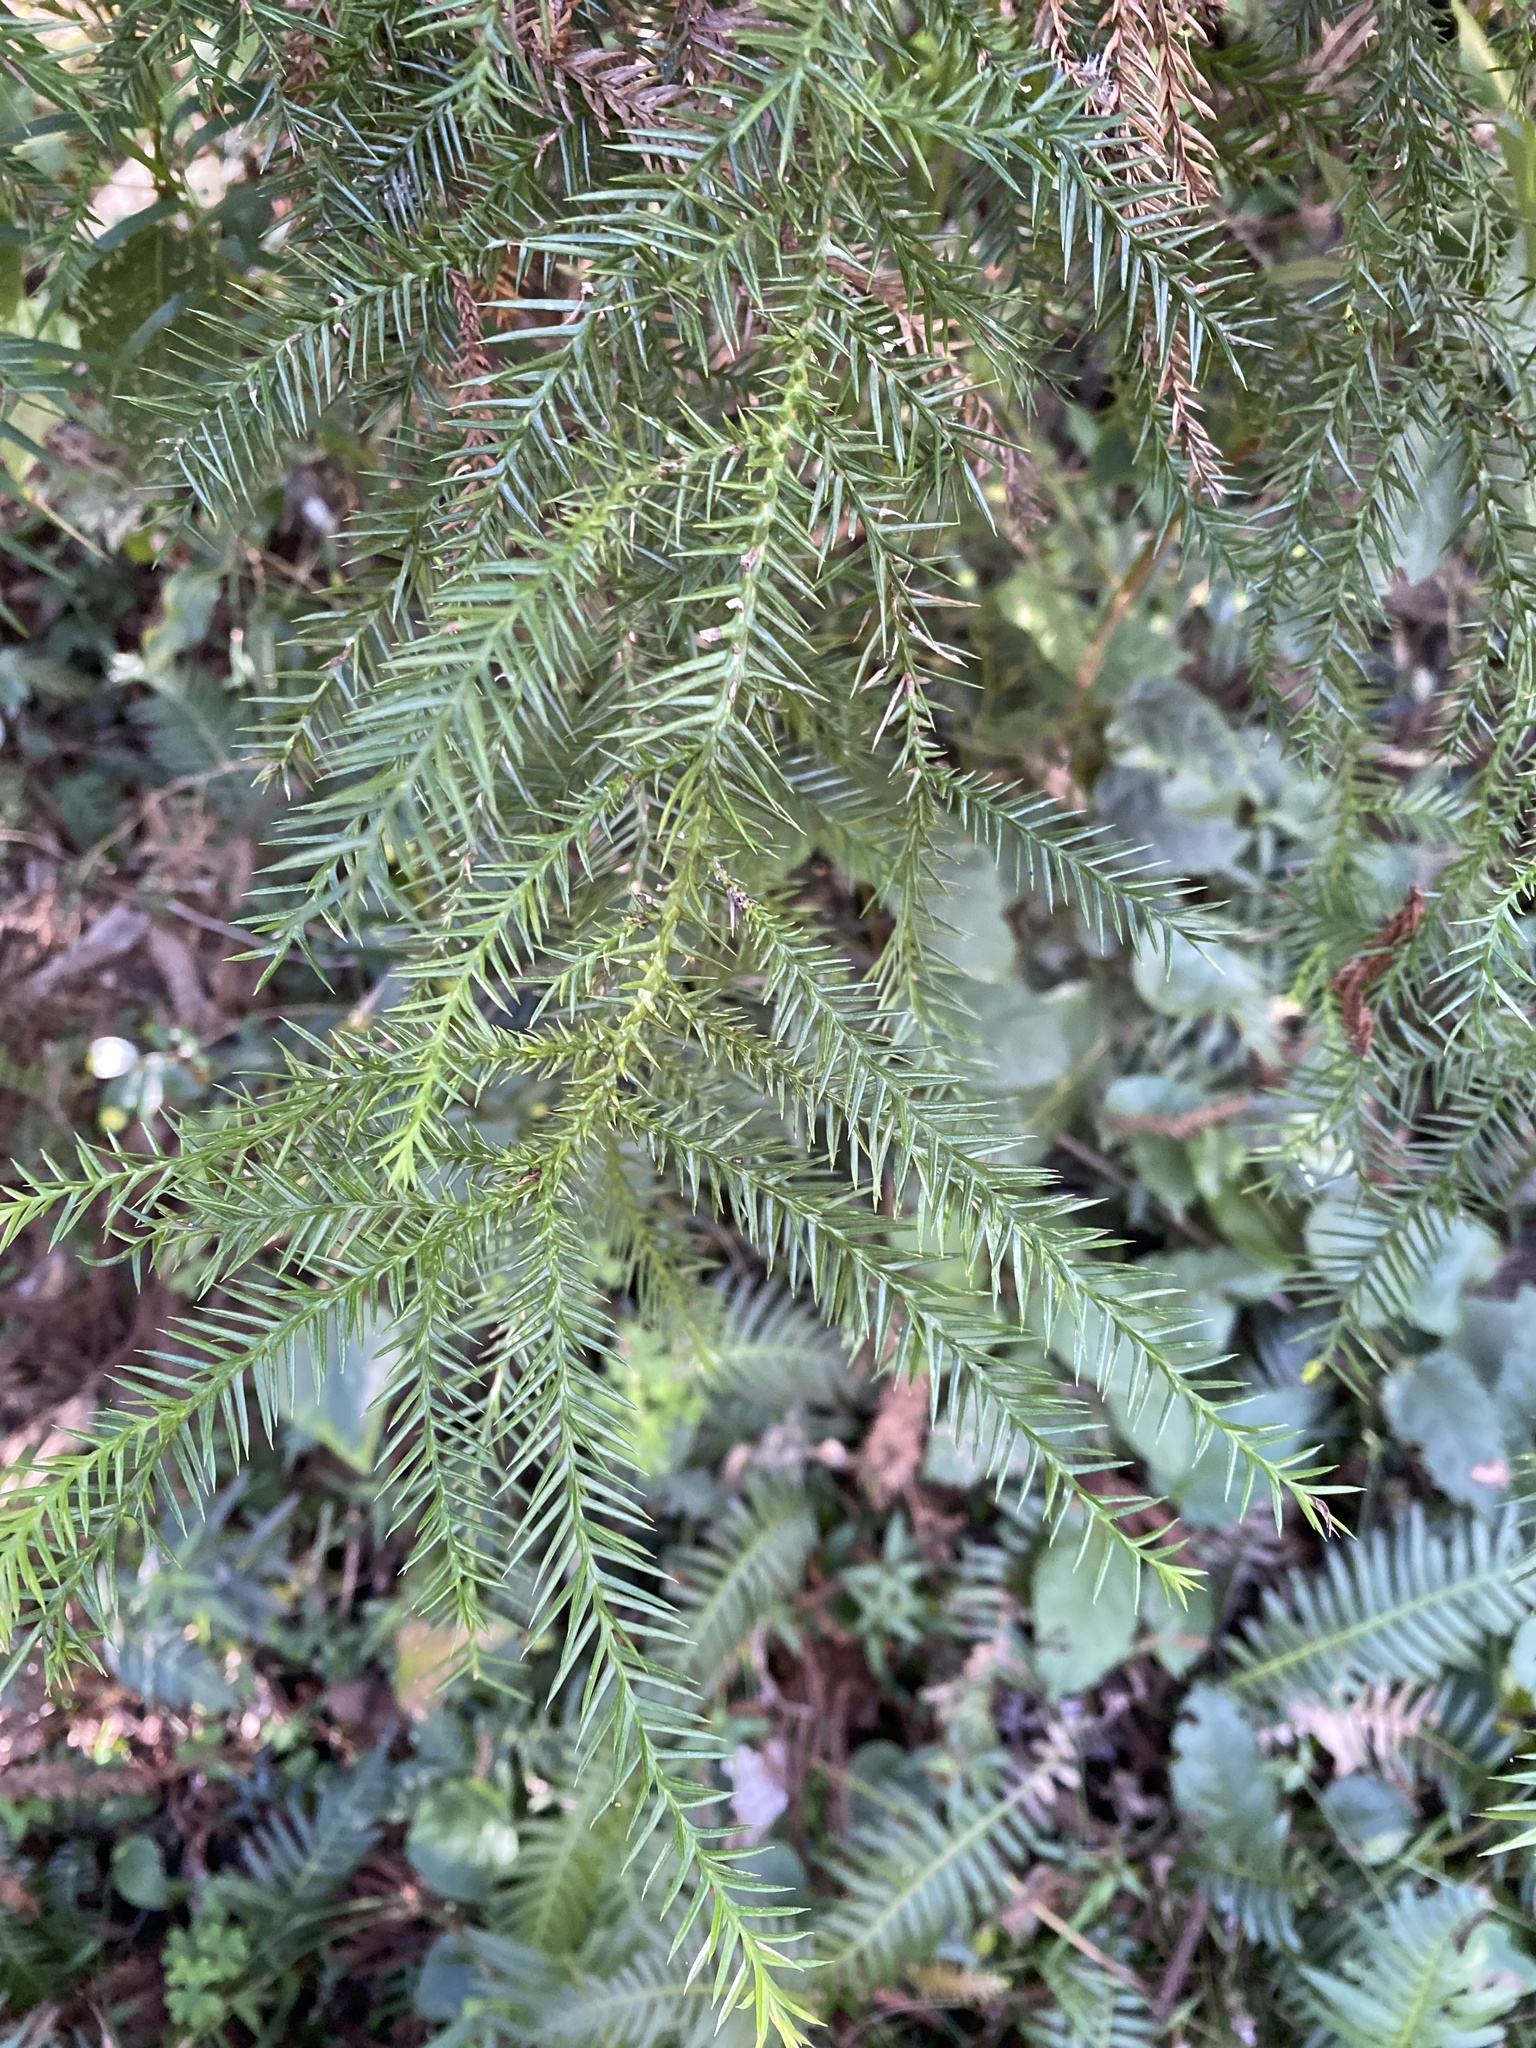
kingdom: Plantae
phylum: Tracheophyta
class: Pinopsida
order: Pinales
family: Araucariaceae
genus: Araucaria
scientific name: Araucaria cunninghamii
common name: Colonial pine
